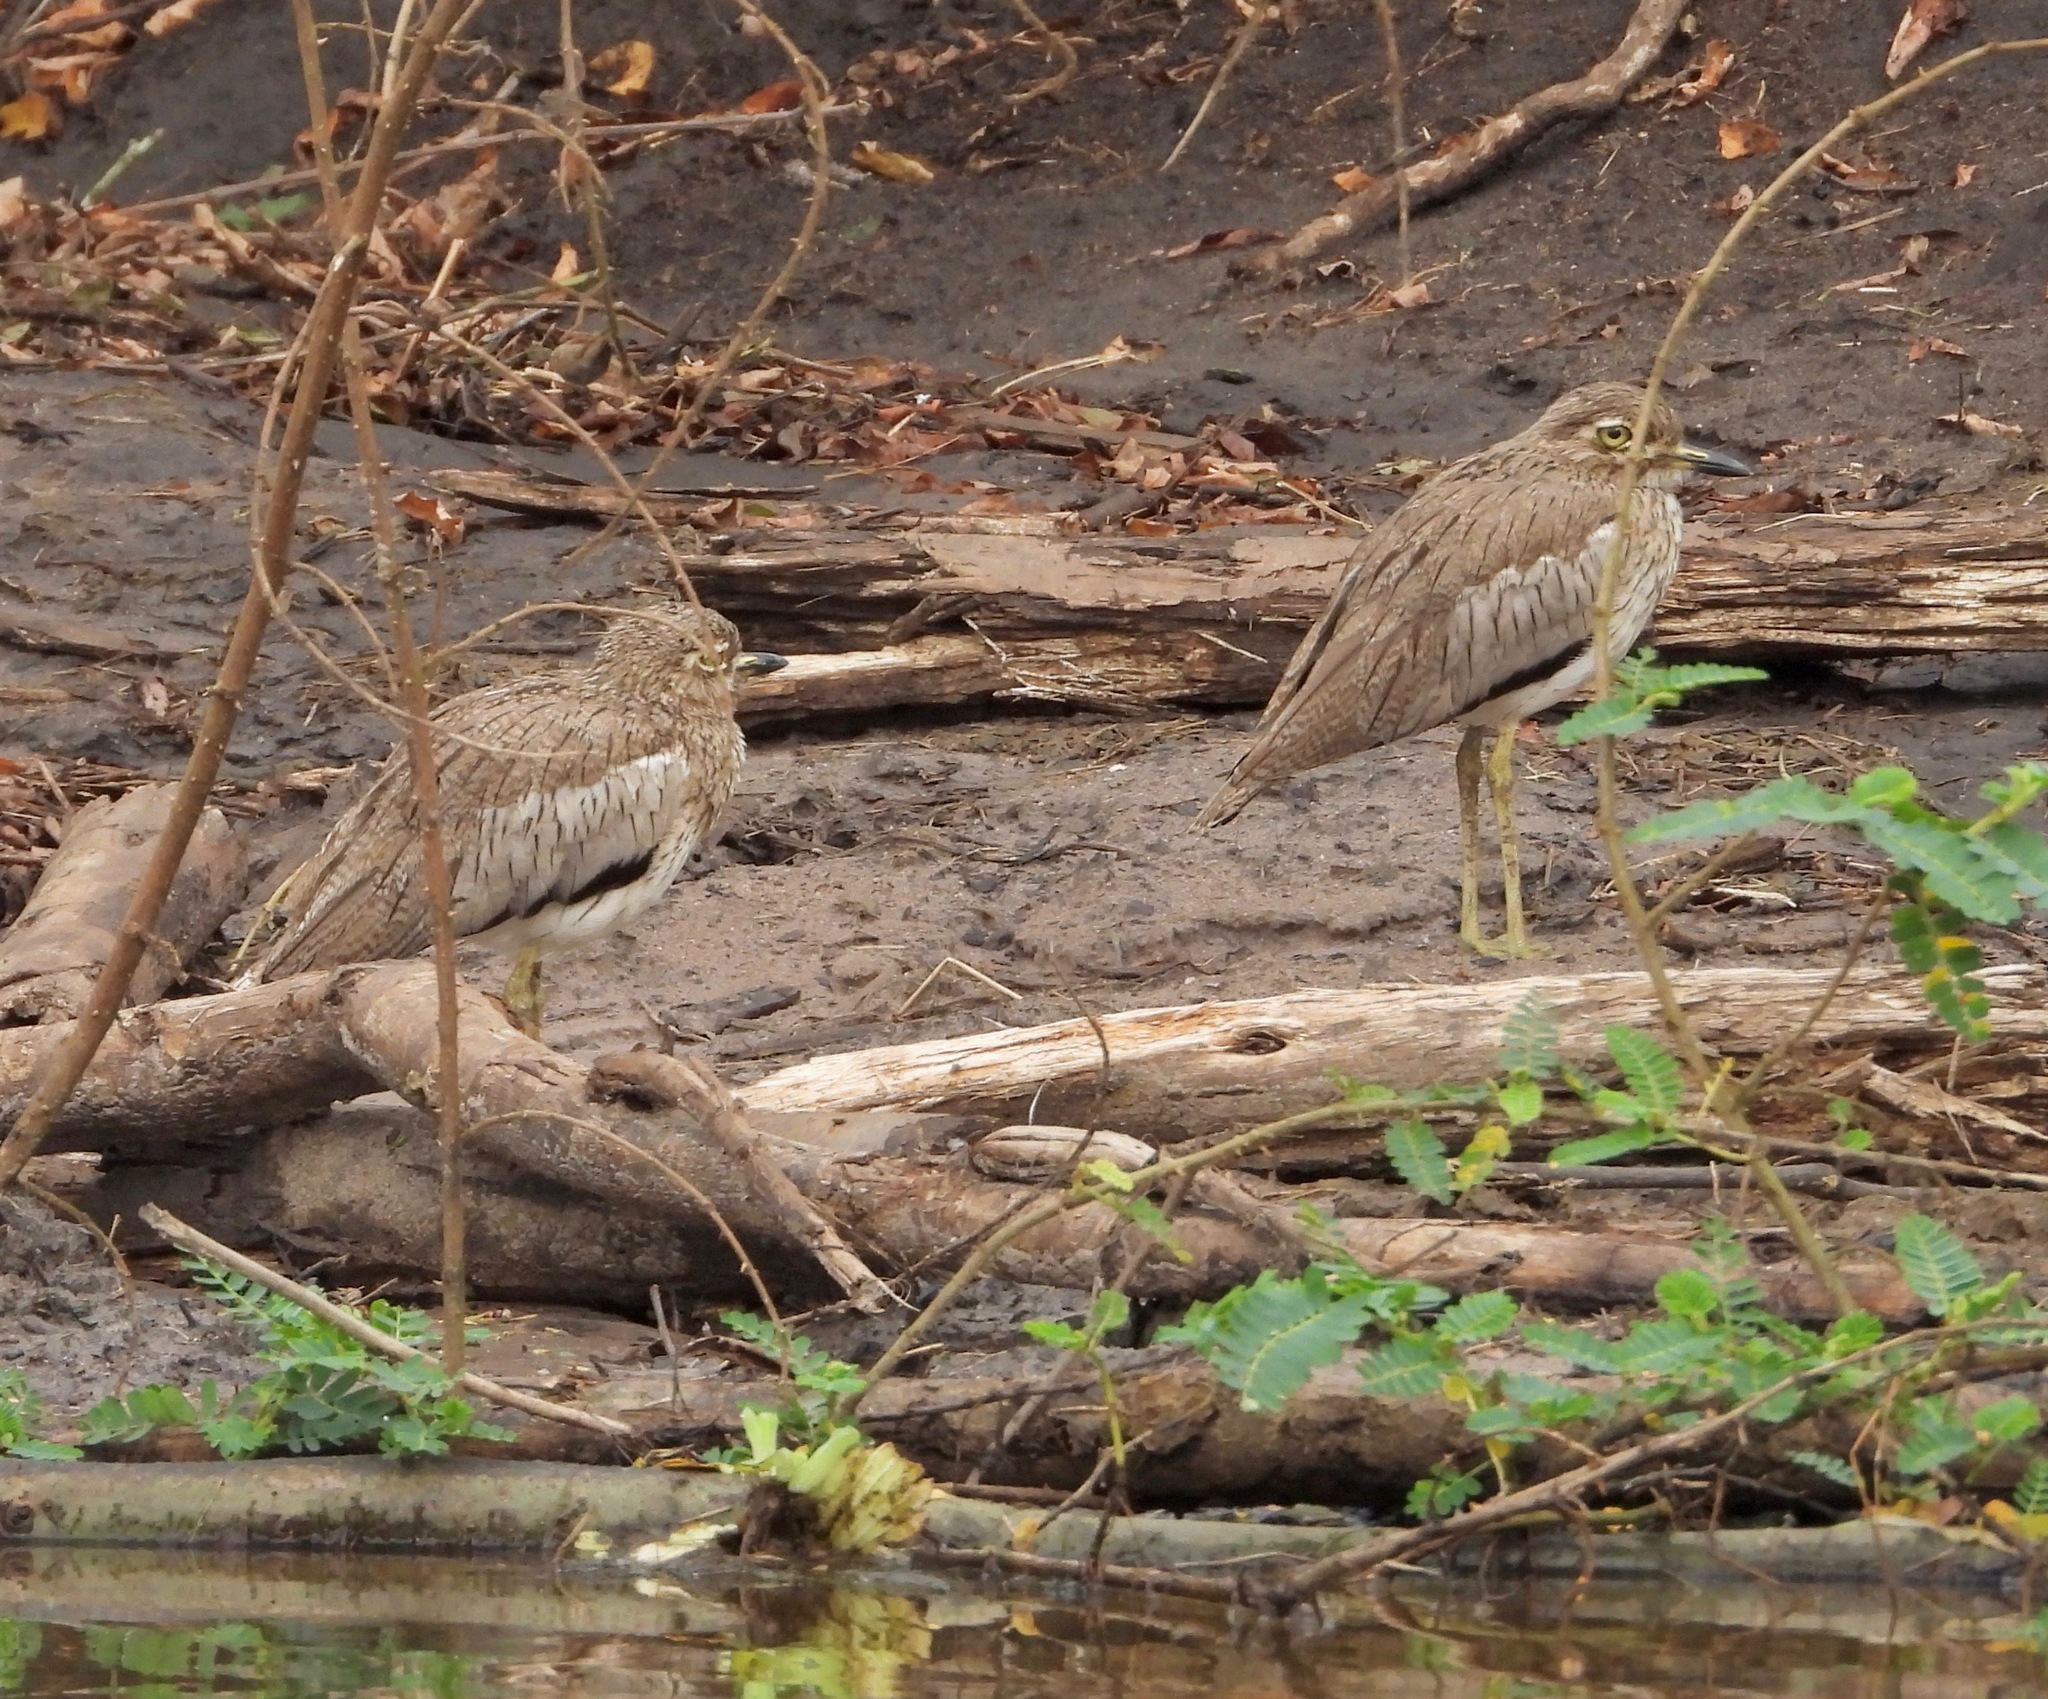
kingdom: Animalia
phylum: Chordata
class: Aves
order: Charadriiformes
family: Burhinidae
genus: Burhinus
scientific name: Burhinus vermiculatus
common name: Water thick-knee
